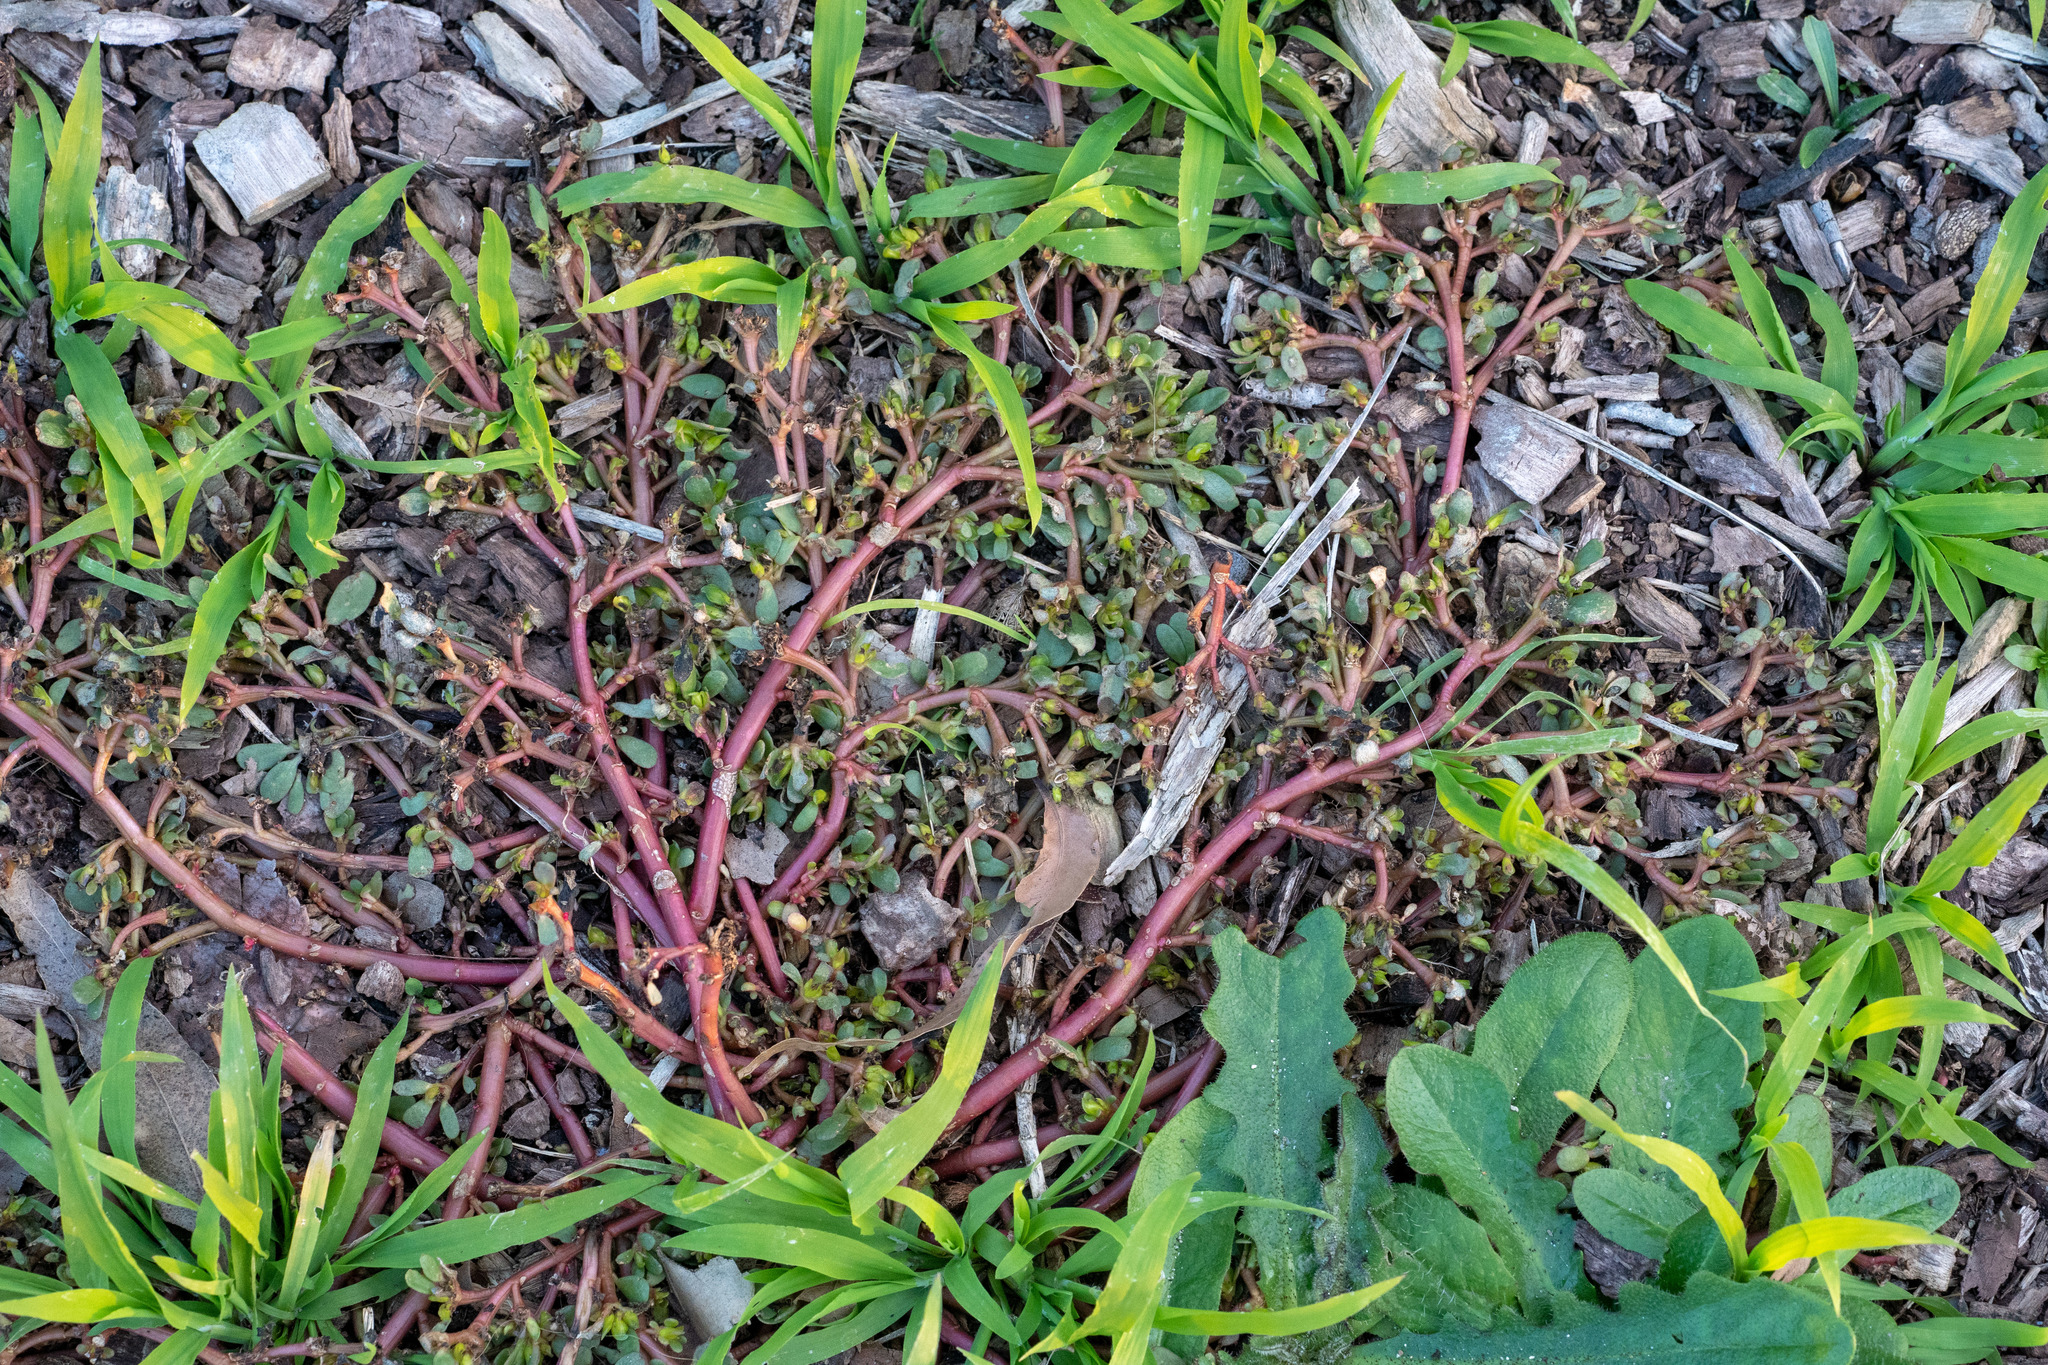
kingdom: Plantae
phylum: Tracheophyta
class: Magnoliopsida
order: Caryophyllales
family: Portulacaceae
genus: Portulaca
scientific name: Portulaca oleracea
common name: Common purslane
